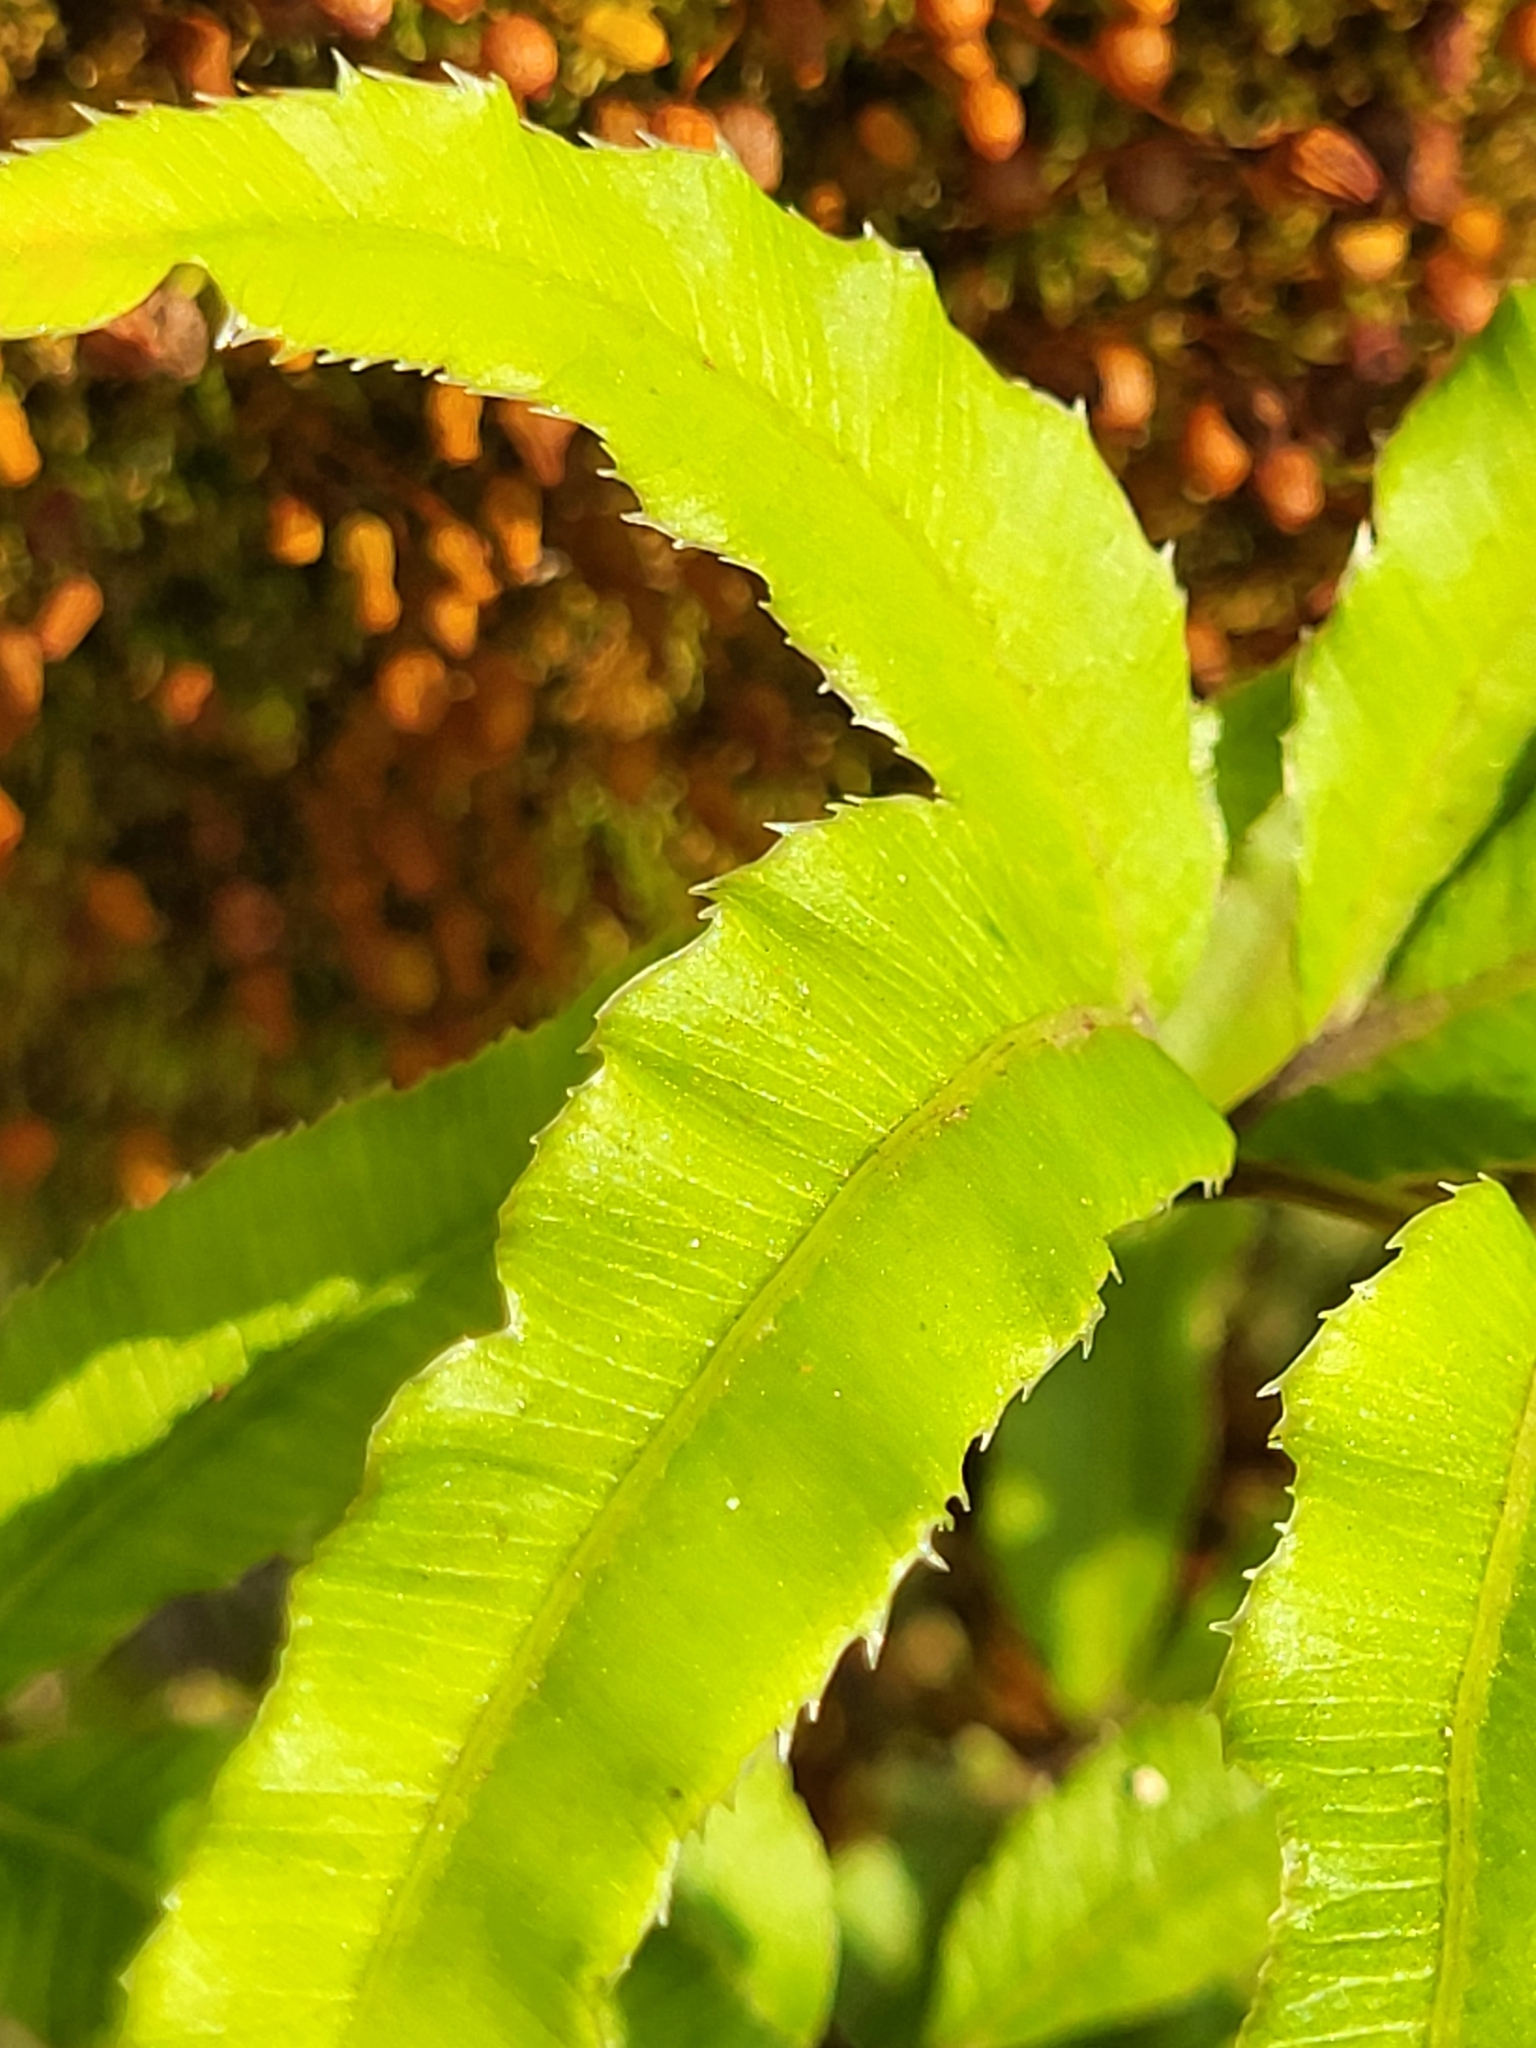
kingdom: Plantae
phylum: Tracheophyta
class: Polypodiopsida
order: Polypodiales
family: Pteridaceae
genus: Pteris
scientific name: Pteris cretica
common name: Ribbon fern
